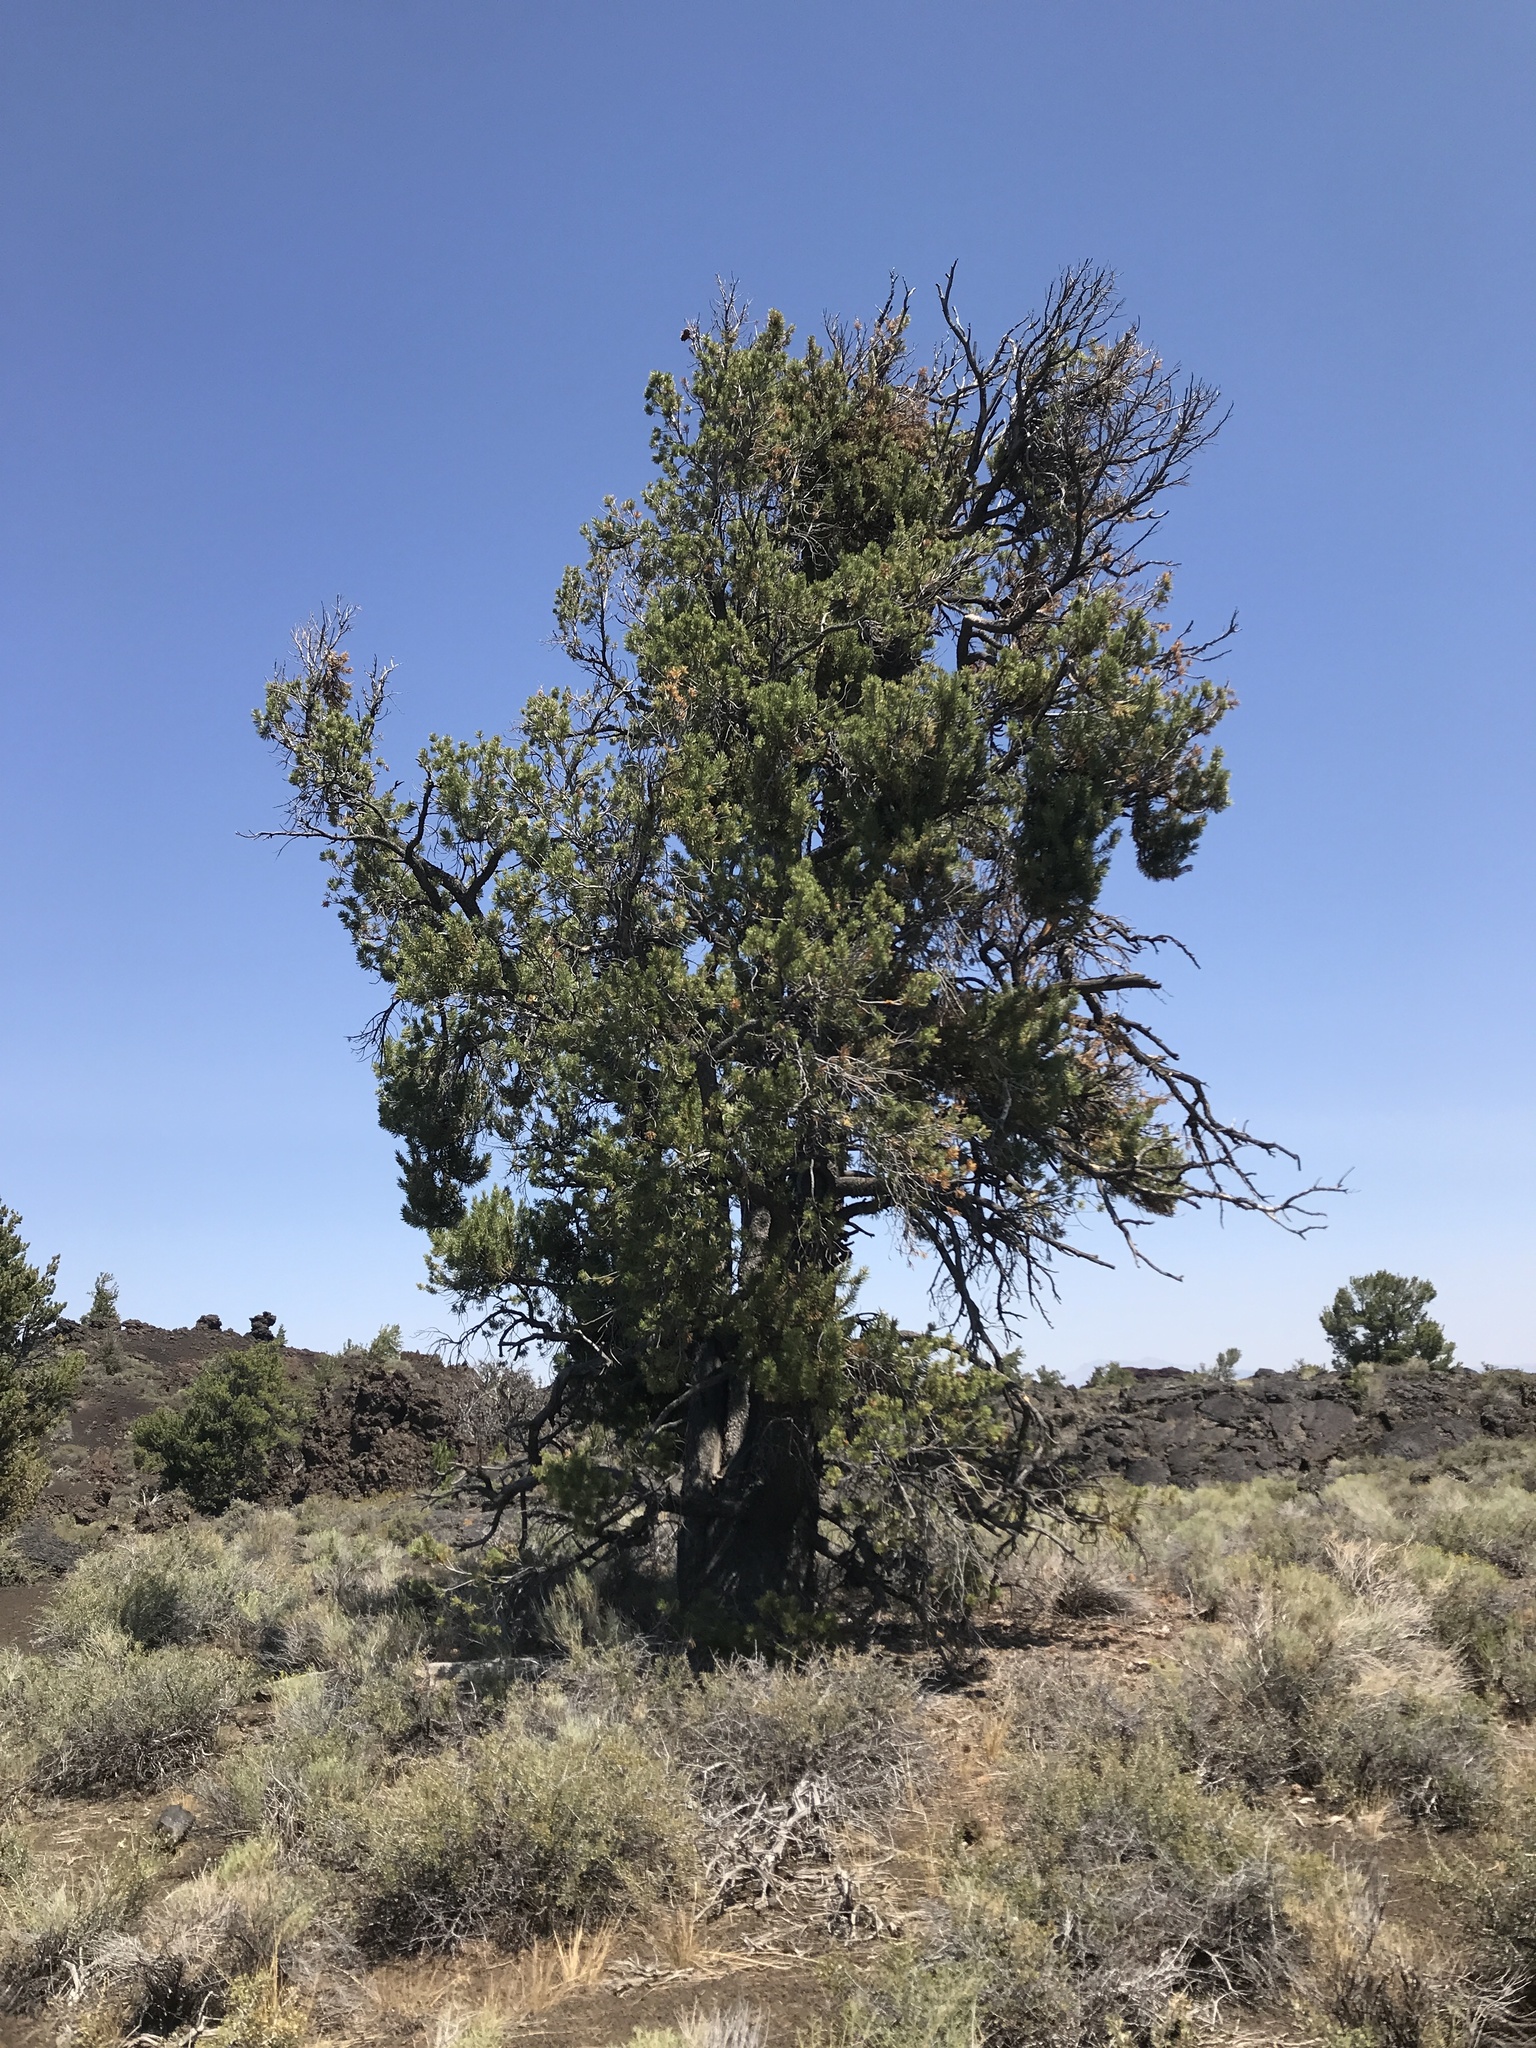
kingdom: Plantae
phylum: Tracheophyta
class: Pinopsida
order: Pinales
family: Pinaceae
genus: Pinus
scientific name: Pinus flexilis
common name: Limber pine
